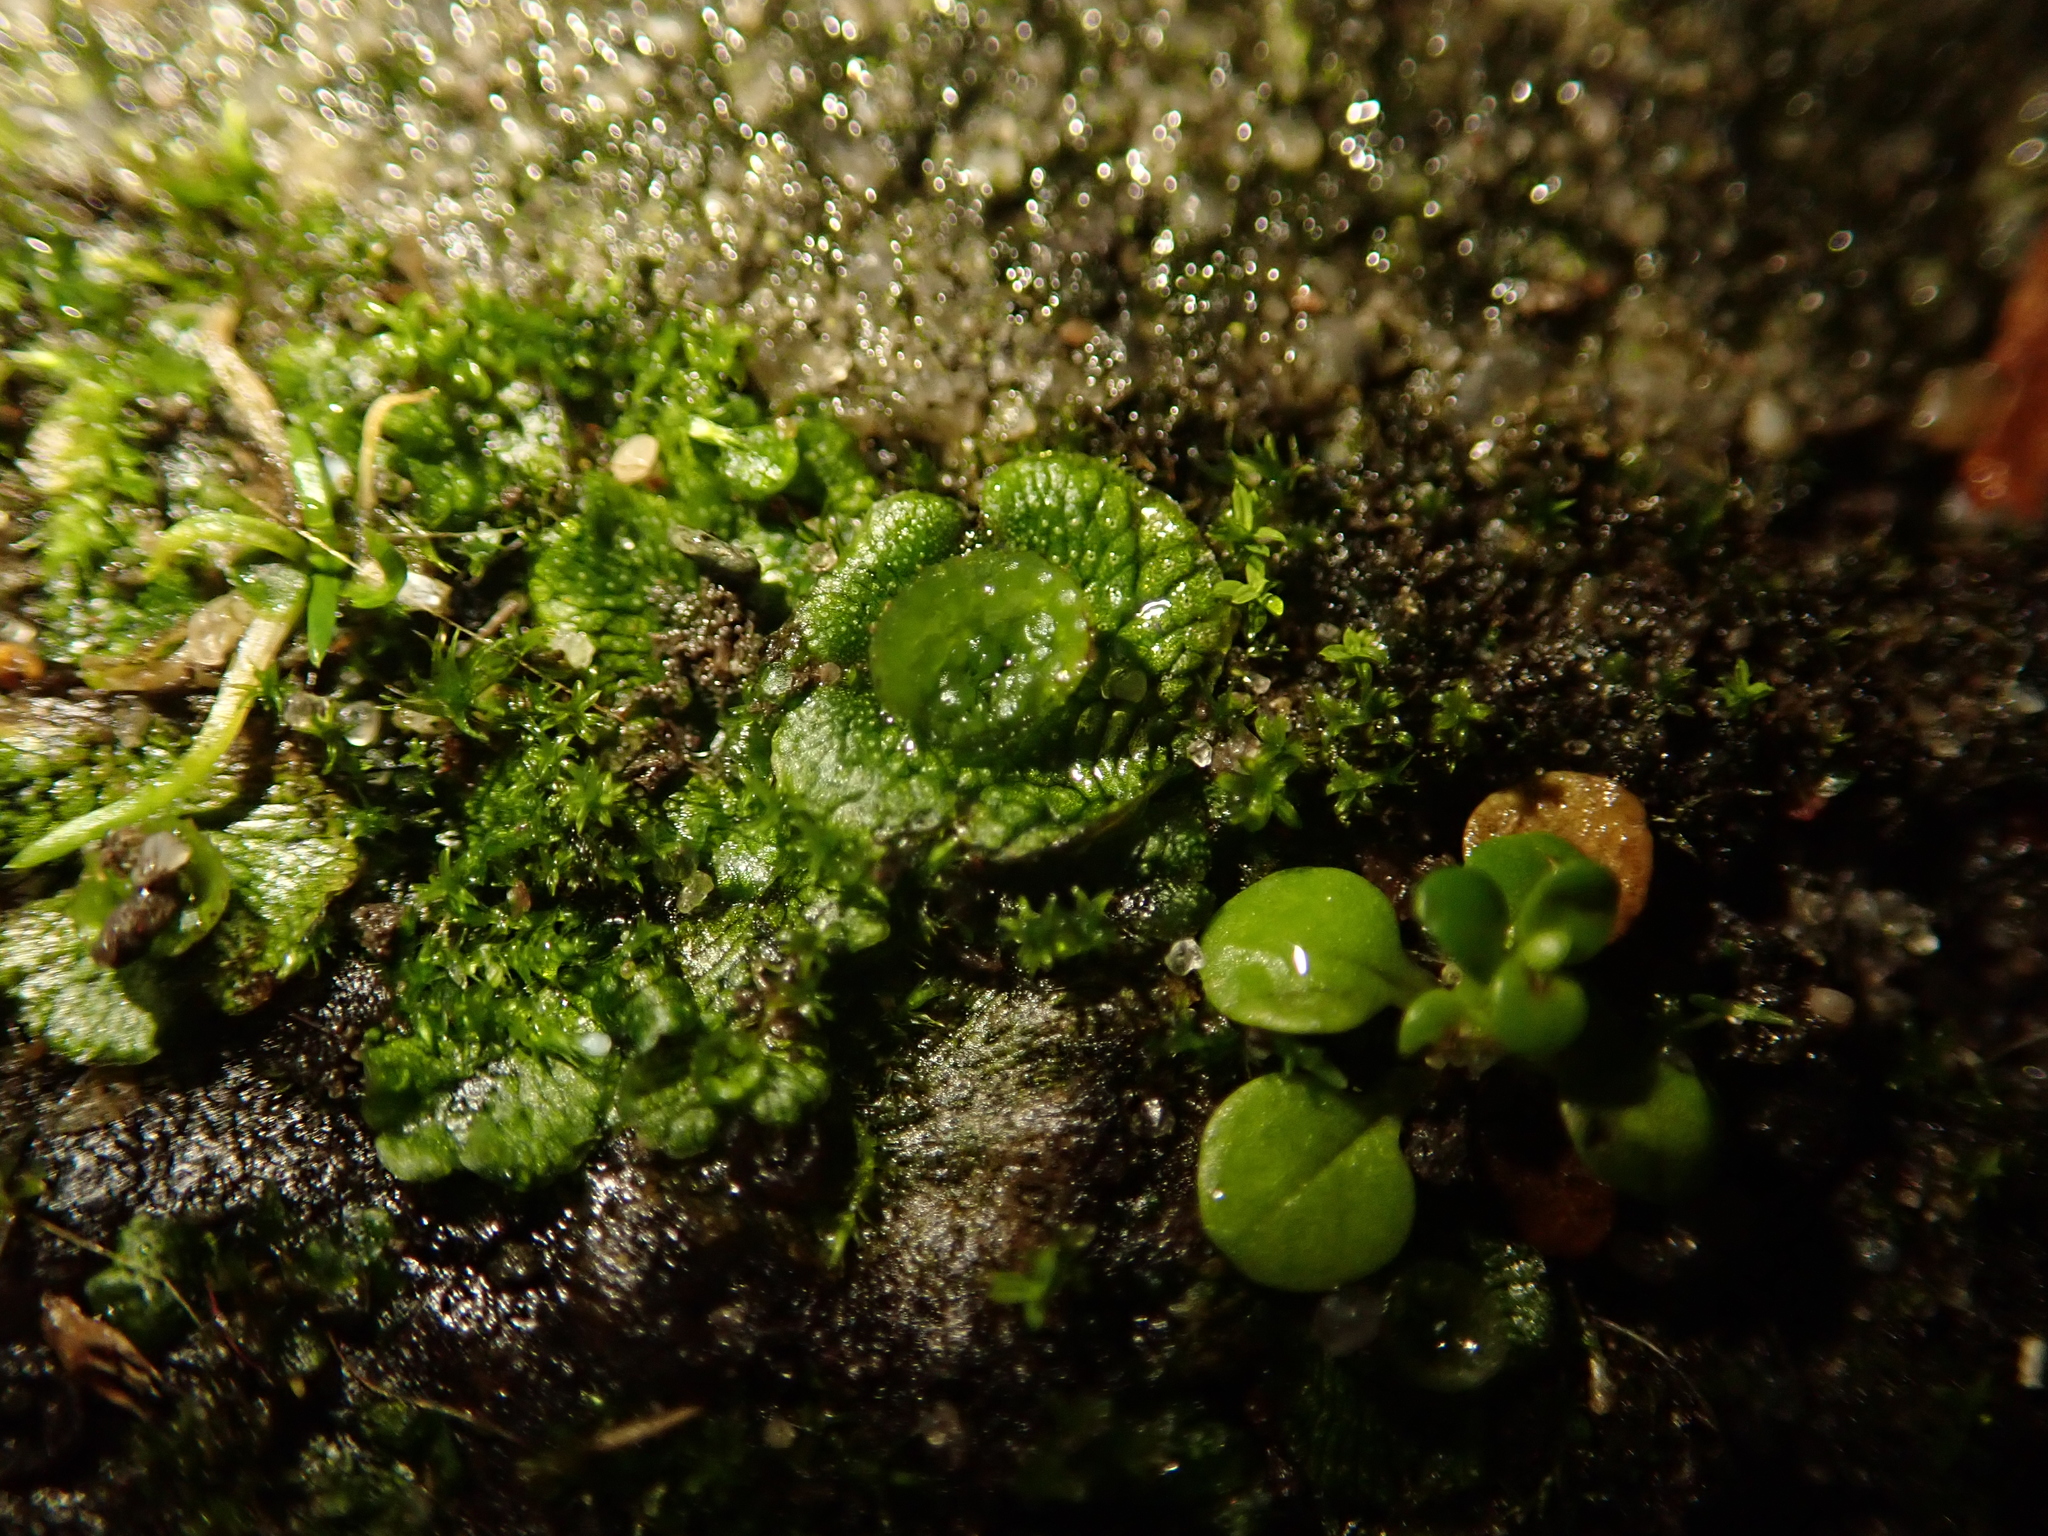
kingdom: Plantae
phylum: Marchantiophyta
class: Marchantiopsida
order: Marchantiales
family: Marchantiaceae
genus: Marchantia
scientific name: Marchantia polymorpha
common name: Common liverwort
